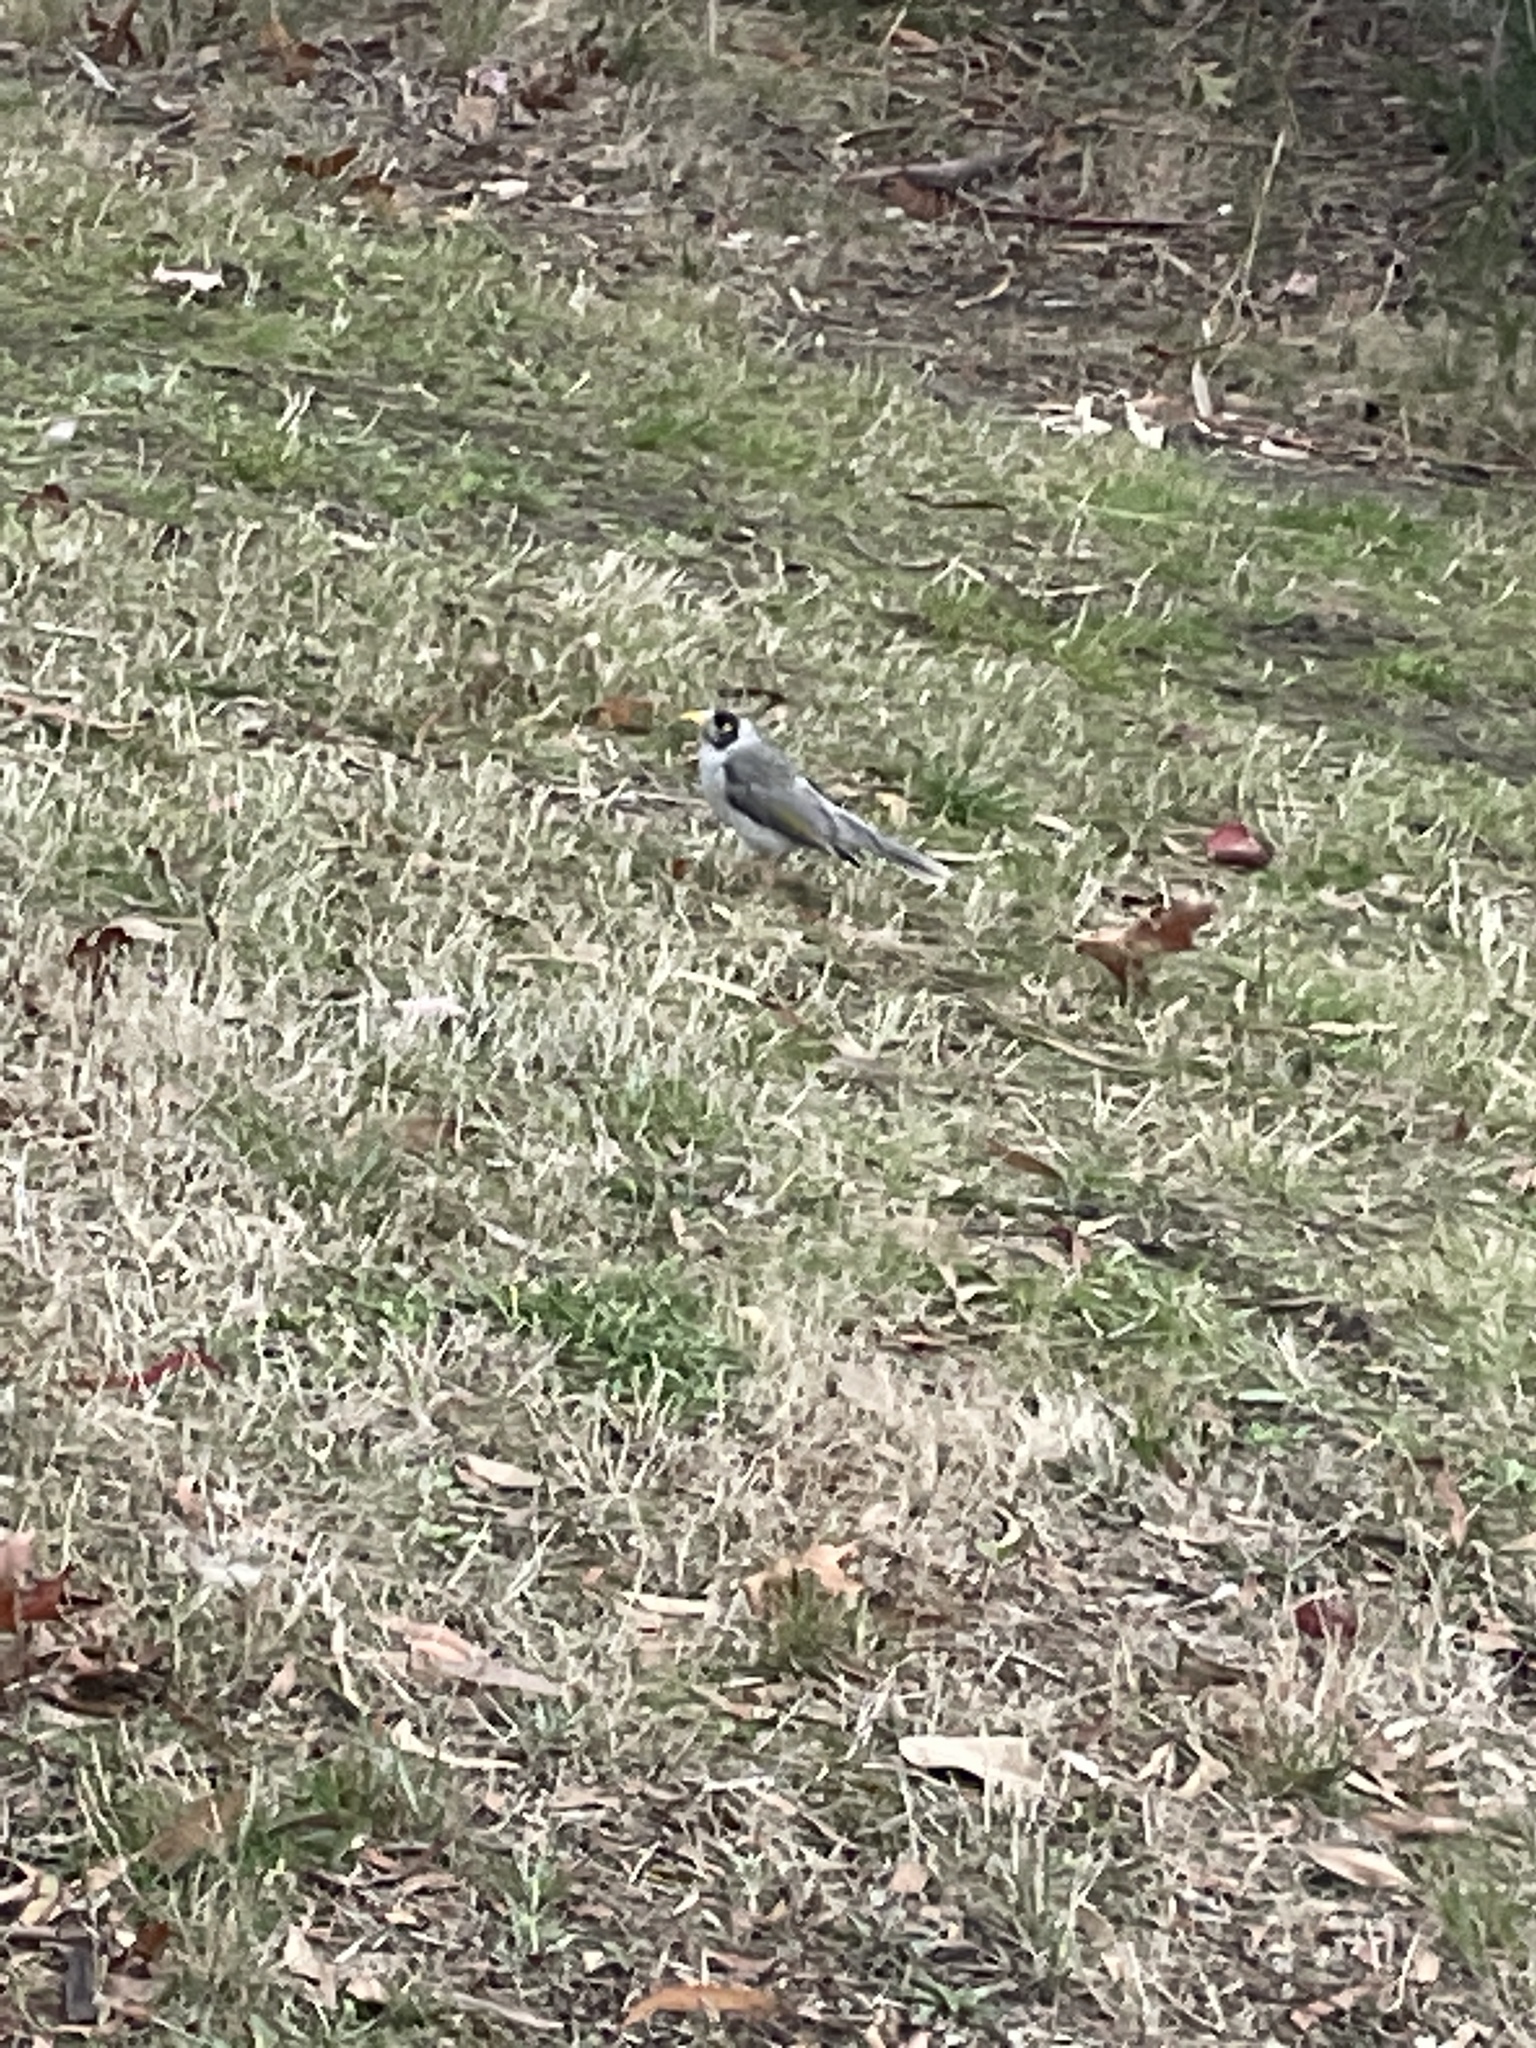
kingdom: Animalia
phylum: Chordata
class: Aves
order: Passeriformes
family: Meliphagidae
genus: Manorina
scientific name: Manorina melanocephala
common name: Noisy miner
